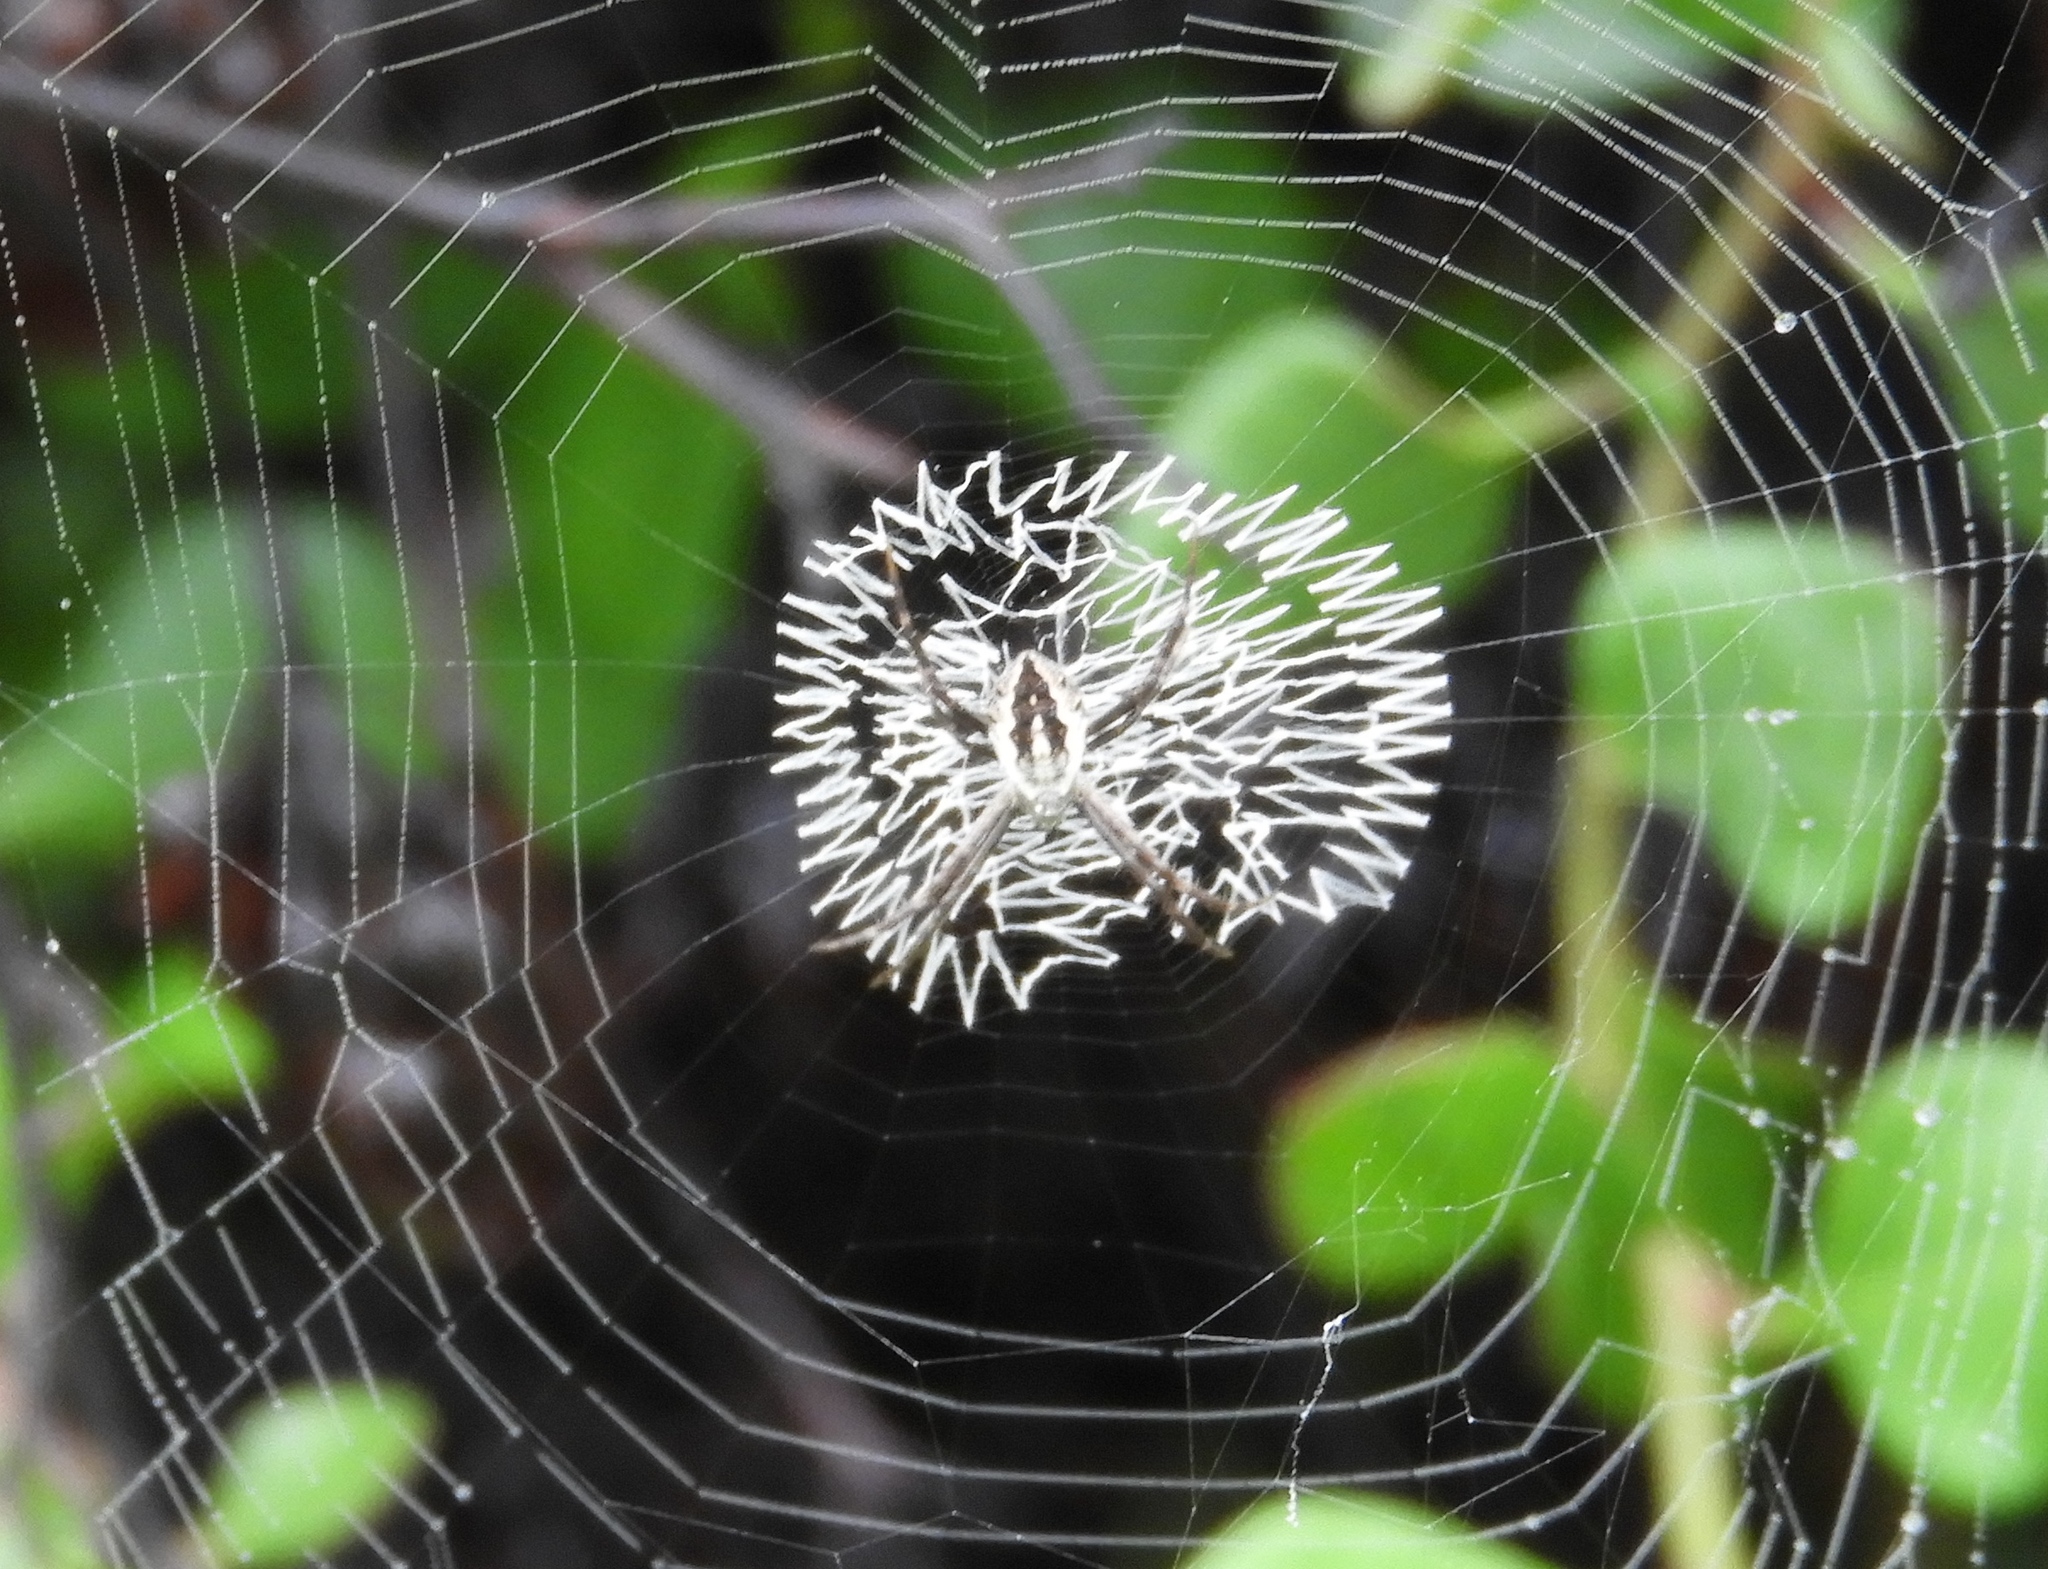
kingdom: Animalia
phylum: Arthropoda
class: Arachnida
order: Araneae
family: Araneidae
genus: Argiope
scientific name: Argiope
